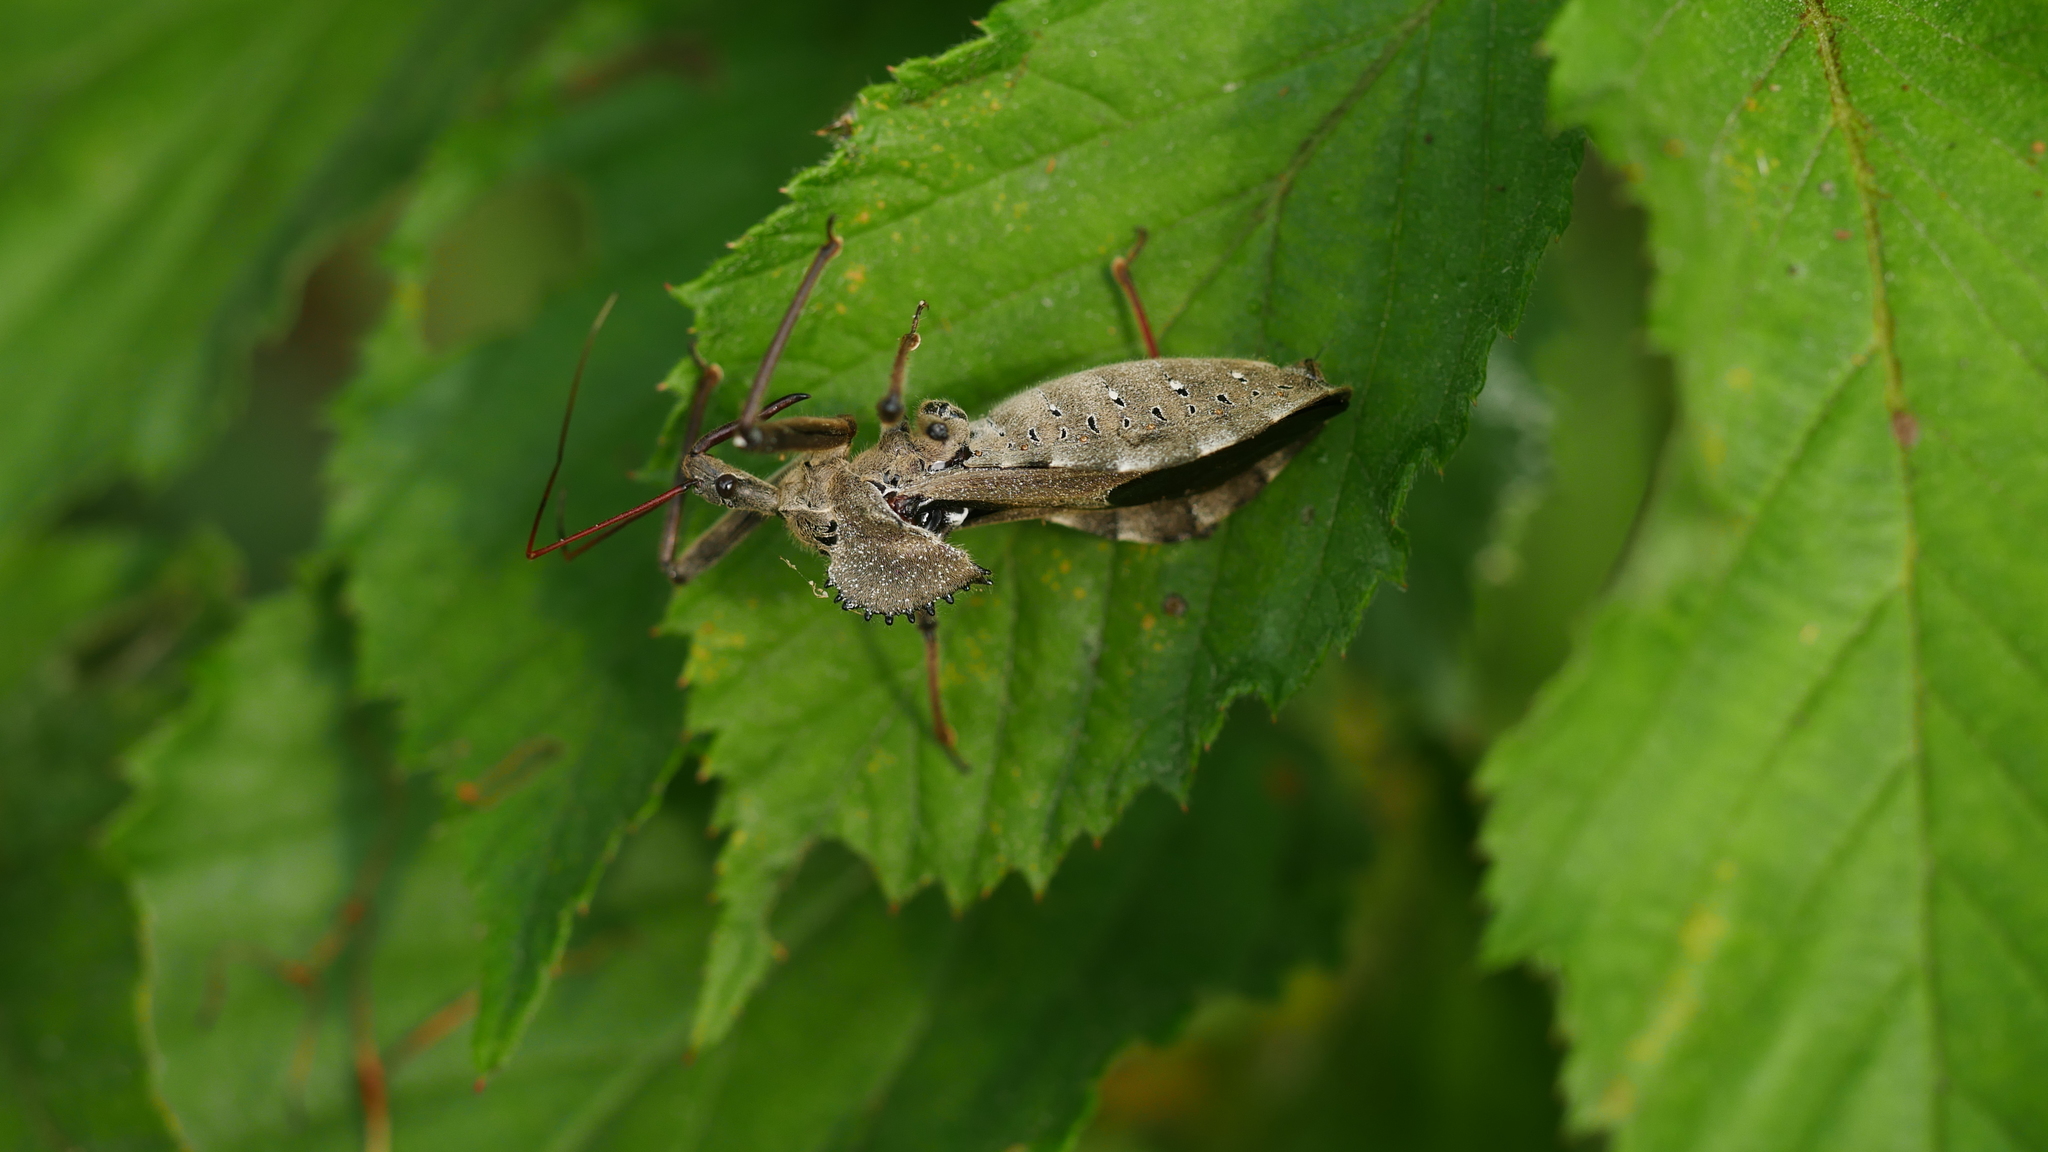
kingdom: Animalia
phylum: Arthropoda
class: Insecta
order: Hemiptera
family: Reduviidae
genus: Arilus
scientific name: Arilus cristatus
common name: North american wheel bug
